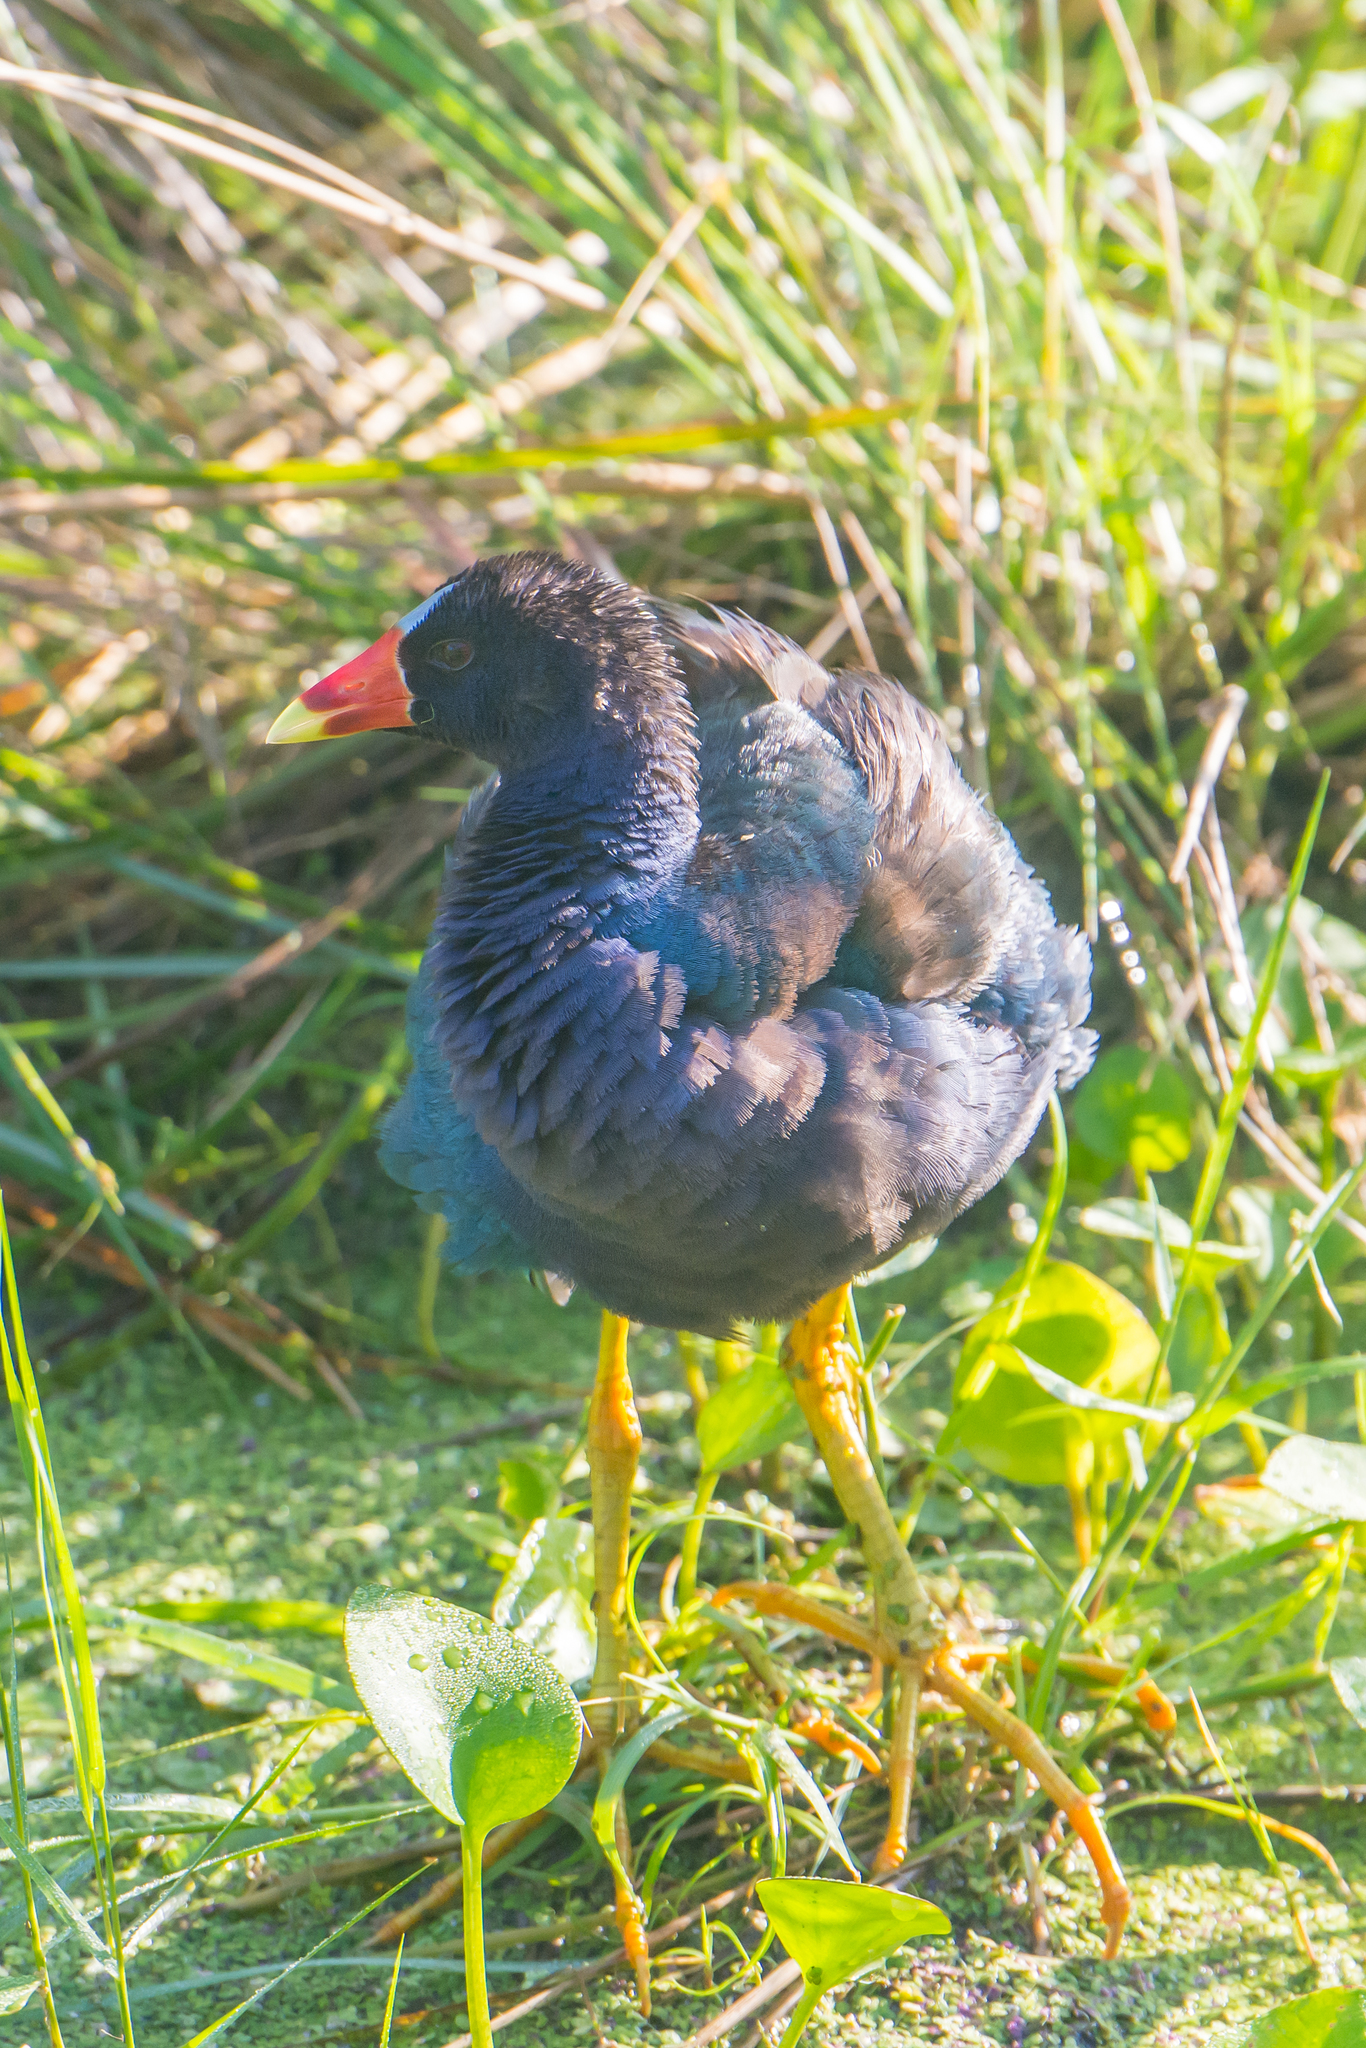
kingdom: Animalia
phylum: Chordata
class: Aves
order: Gruiformes
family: Rallidae
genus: Porphyrio
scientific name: Porphyrio martinica
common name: Purple gallinule
